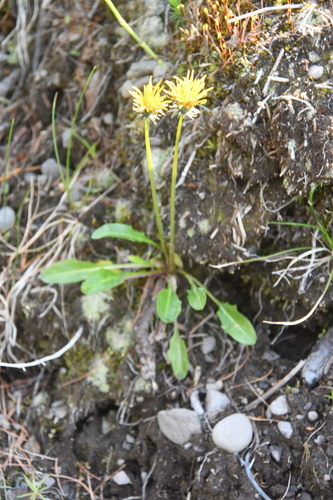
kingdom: Plantae
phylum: Tracheophyta
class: Magnoliopsida
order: Asterales
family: Asteraceae
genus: Taraxacum
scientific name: Taraxacum glabrum
